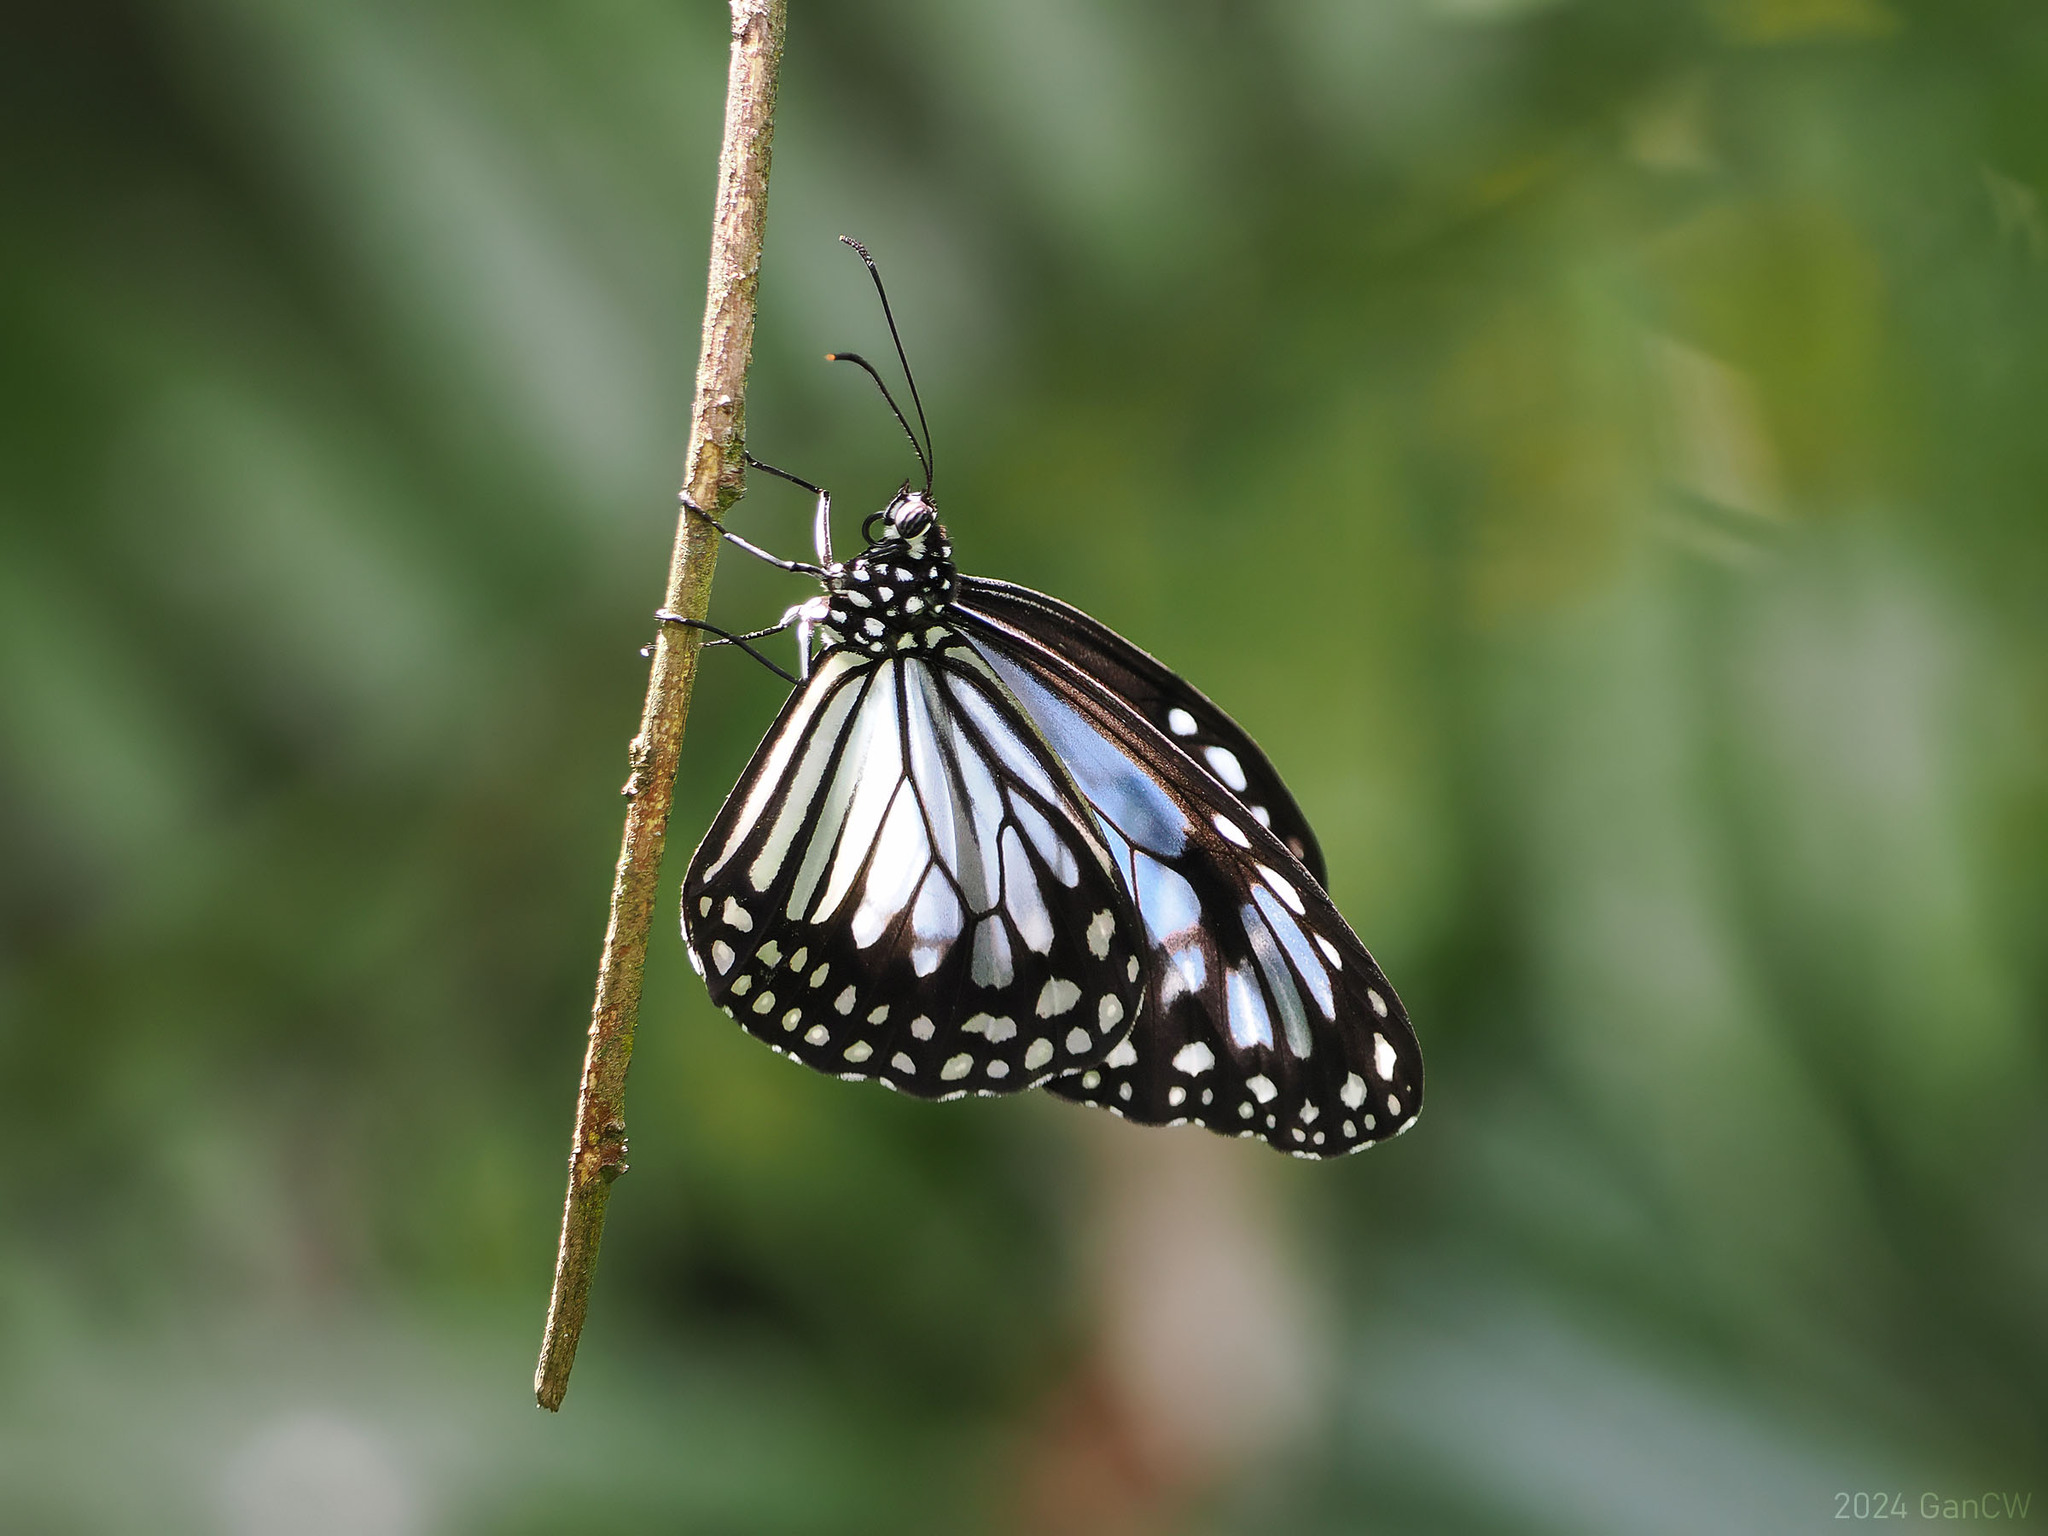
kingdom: Animalia
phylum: Arthropoda
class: Insecta
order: Lepidoptera
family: Nymphalidae
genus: Parantica
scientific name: Parantica vitrina
